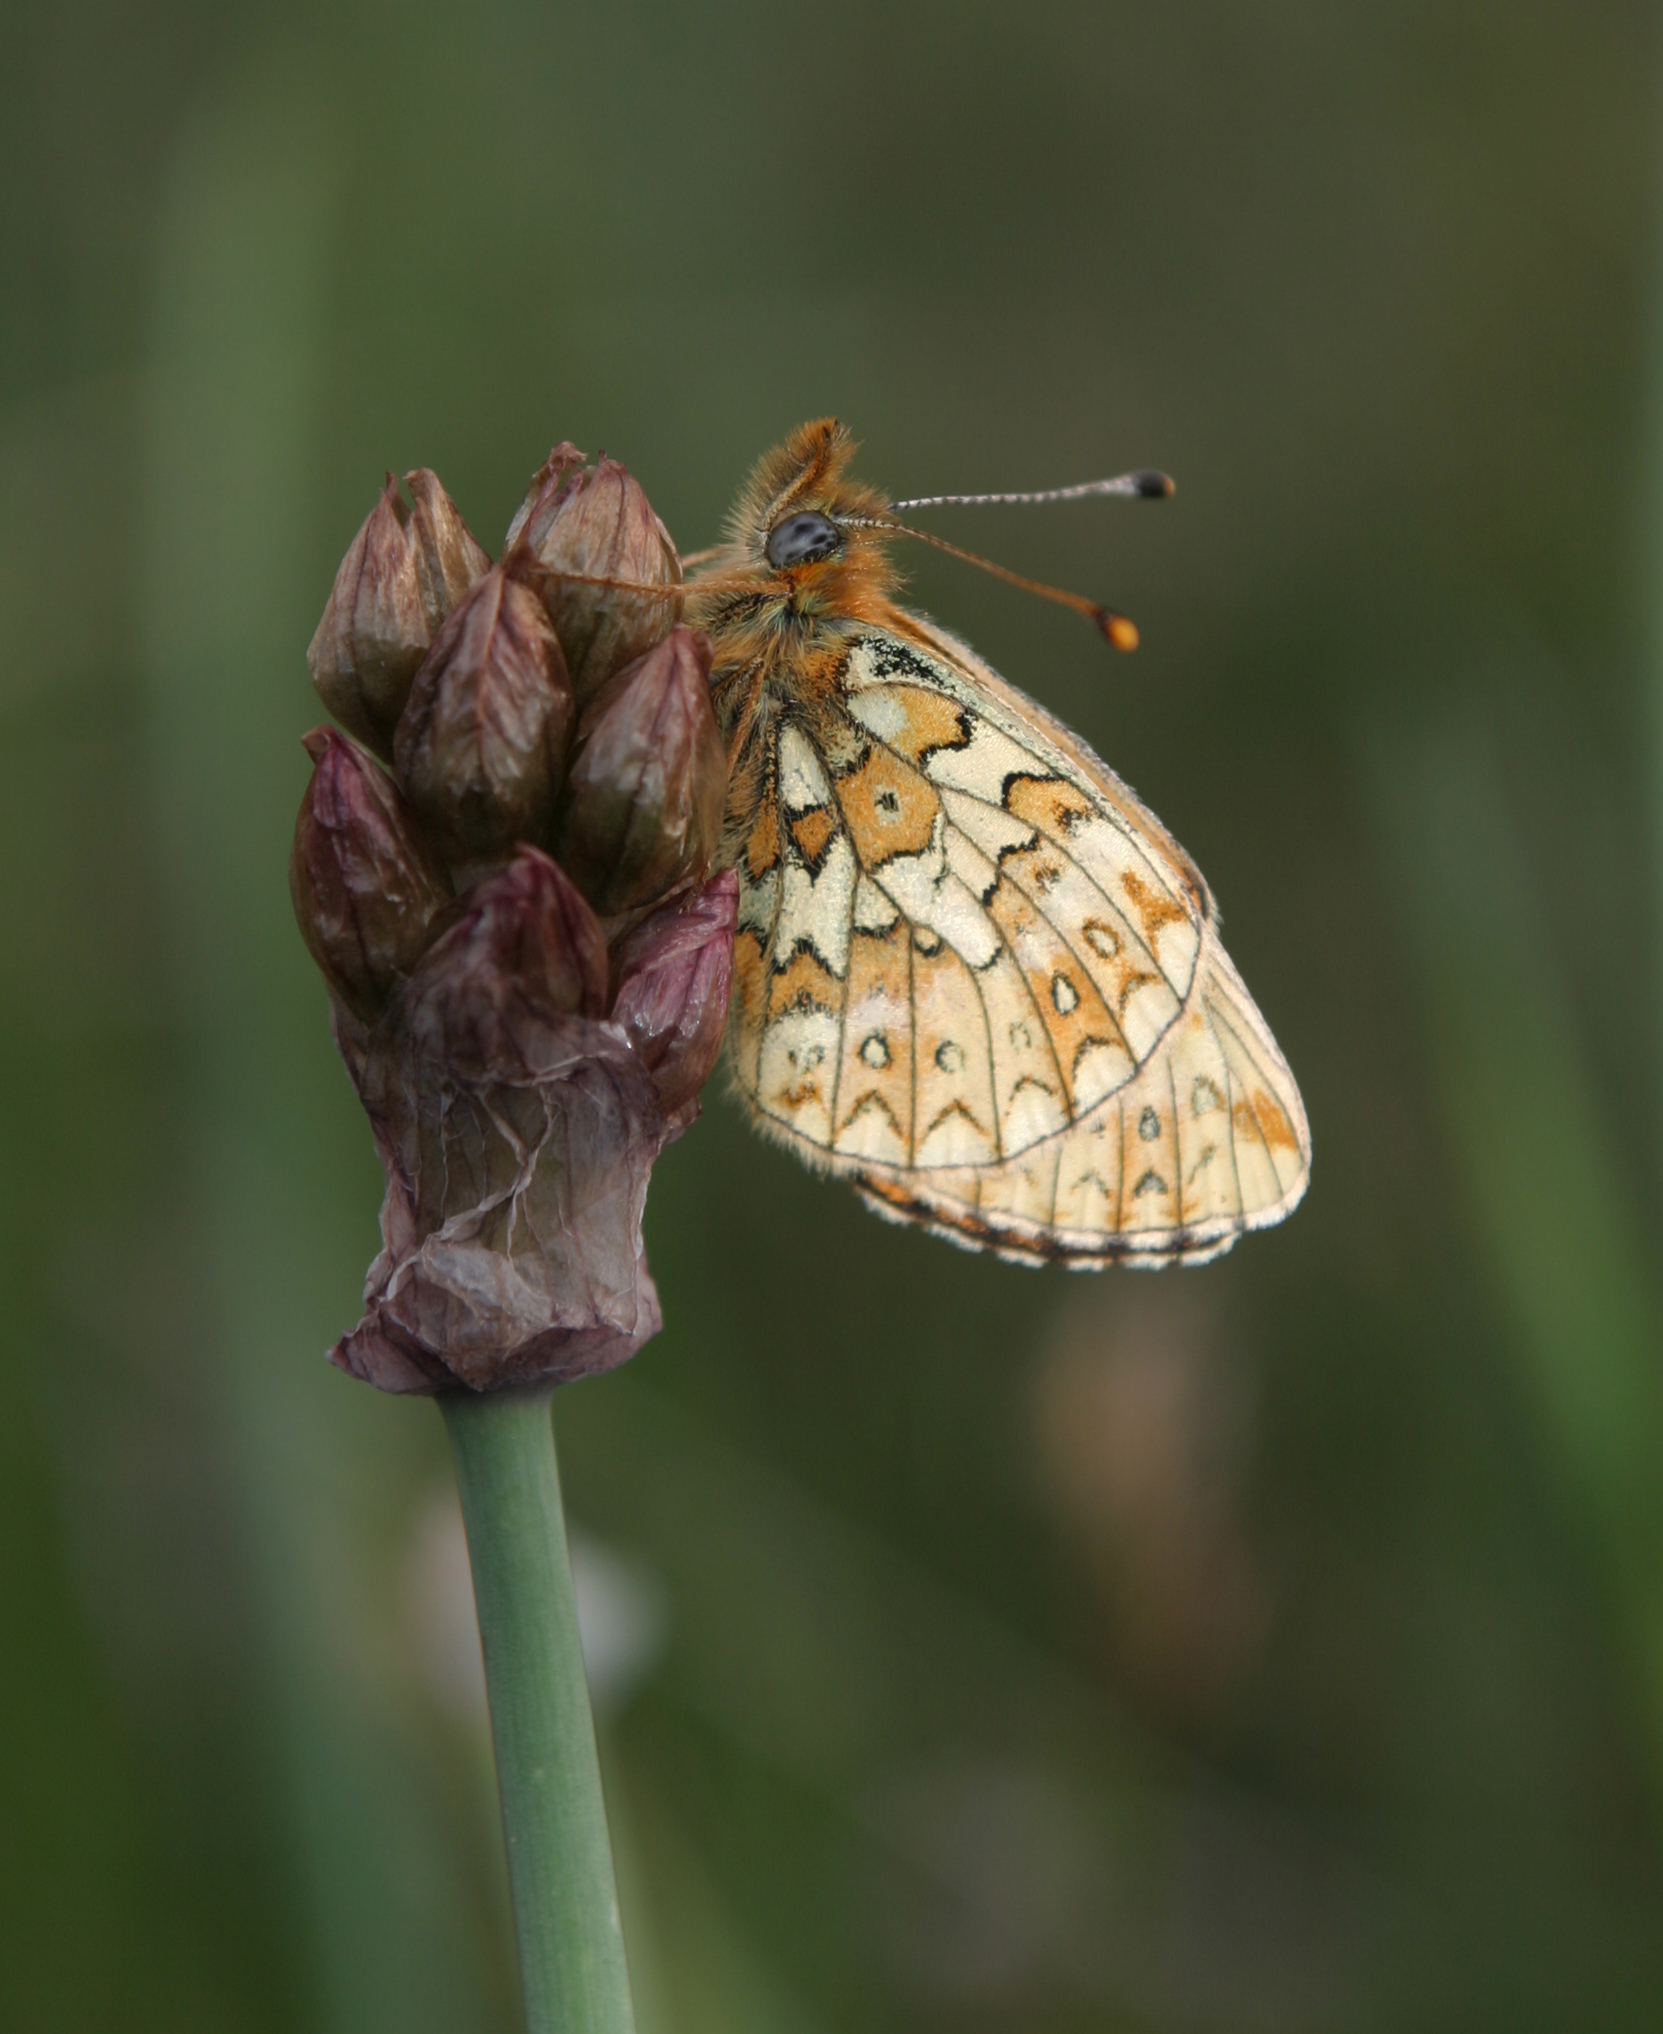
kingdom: Animalia
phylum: Arthropoda
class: Insecta
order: Lepidoptera
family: Nymphalidae
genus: Boloria
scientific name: Boloria erubescens
